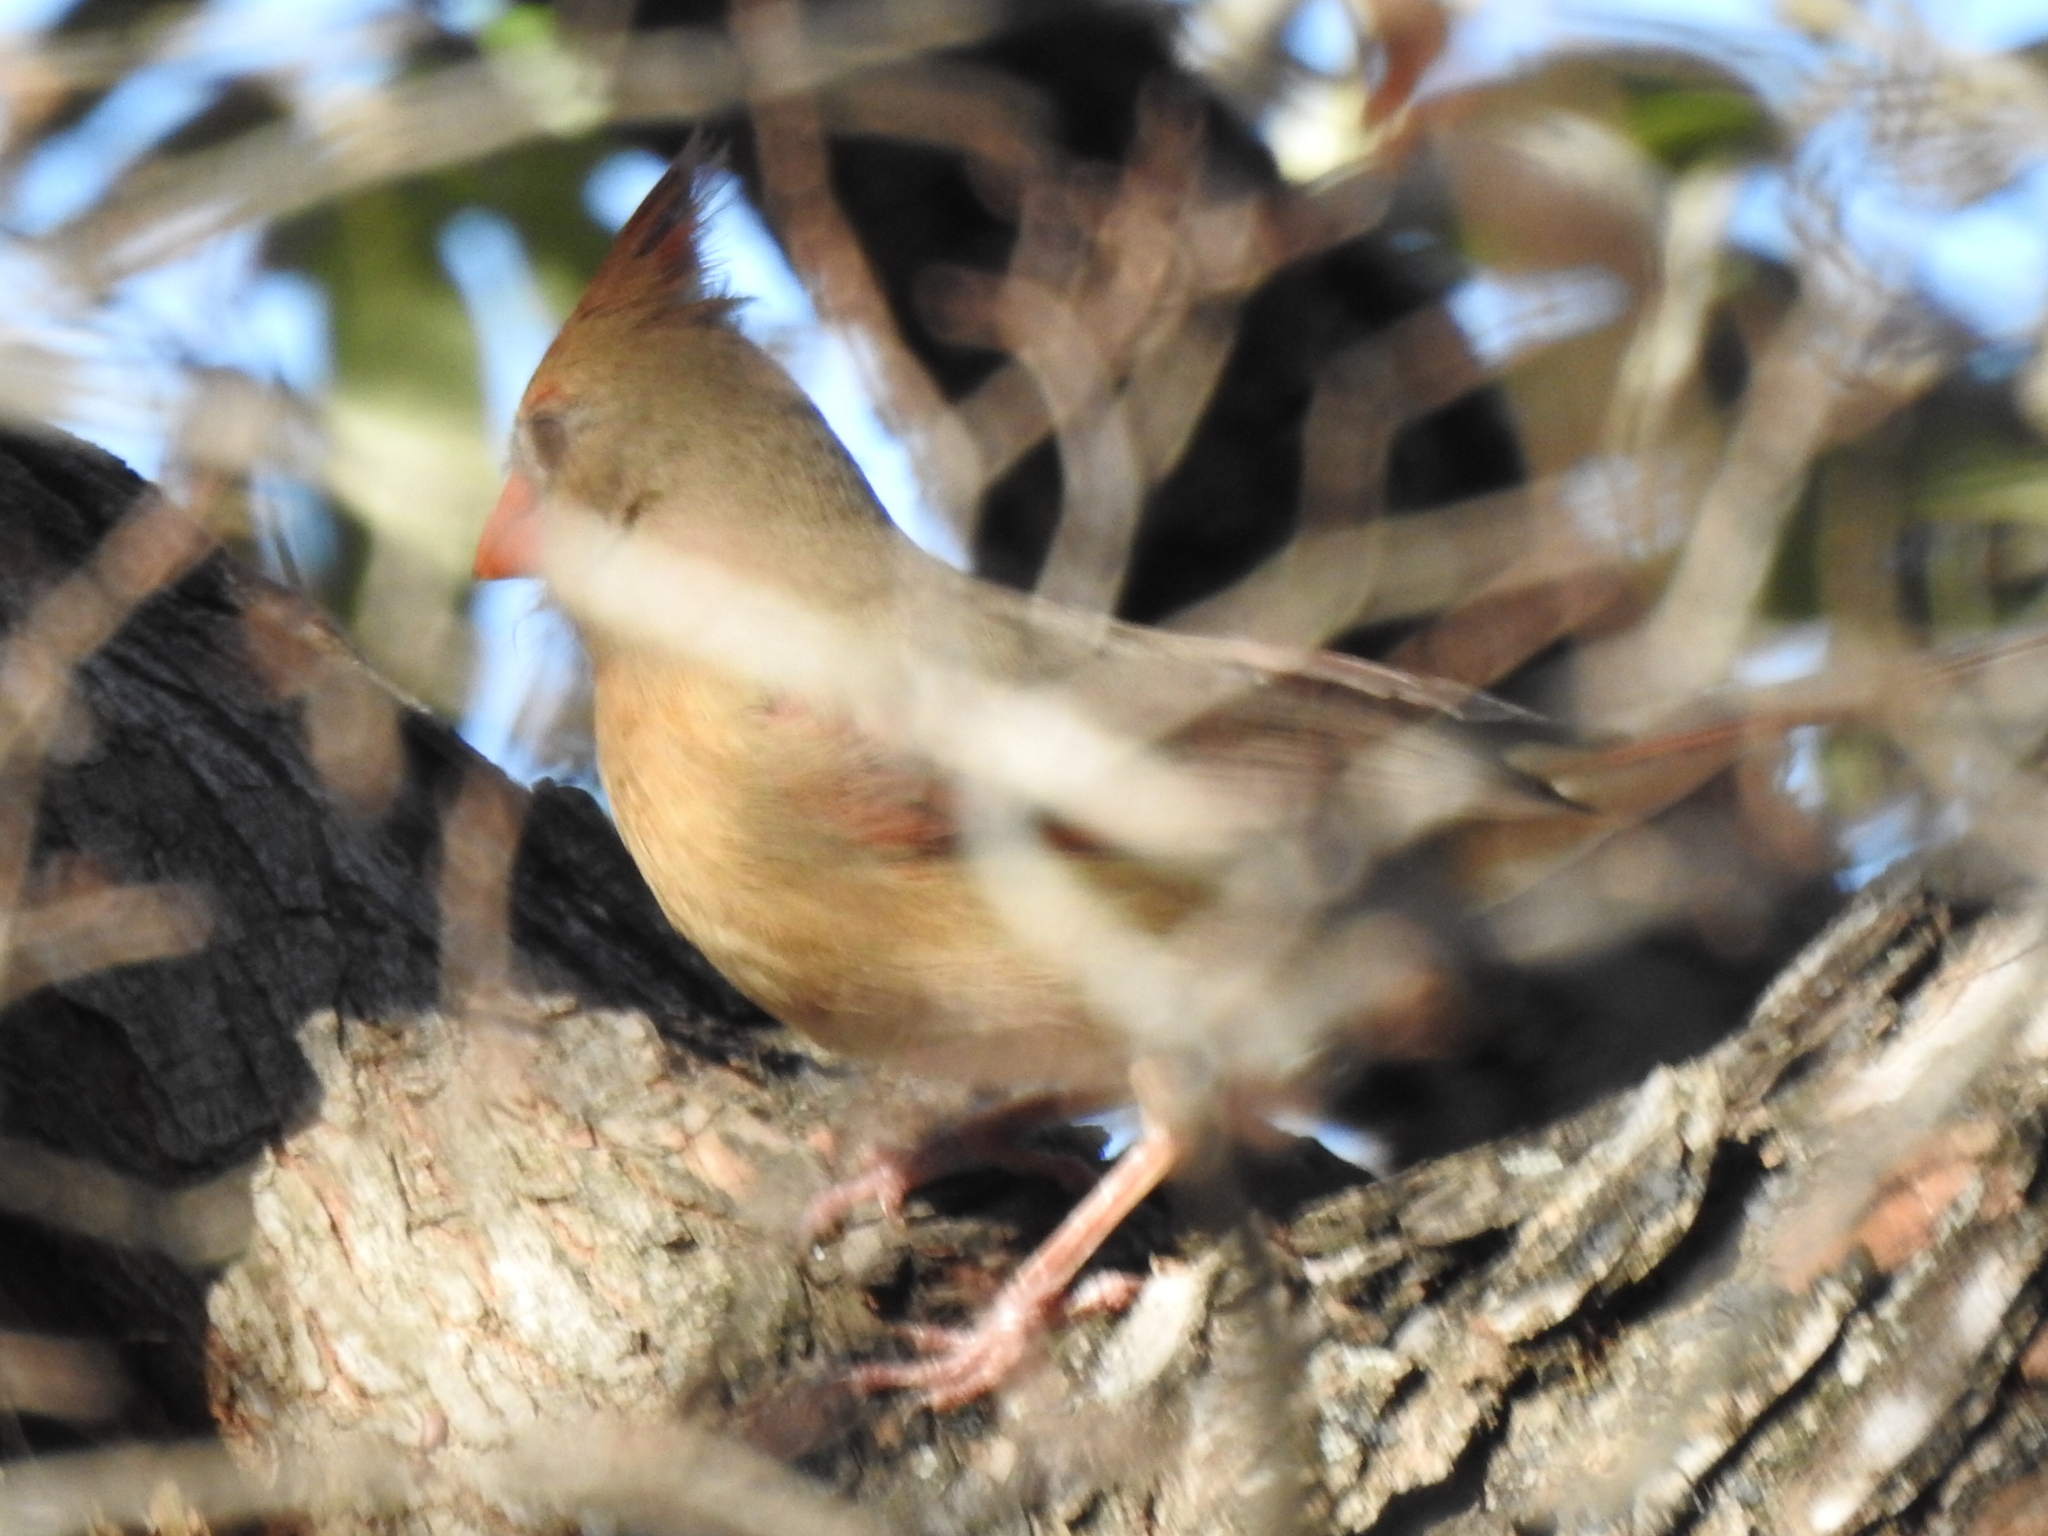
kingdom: Animalia
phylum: Chordata
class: Aves
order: Passeriformes
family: Cardinalidae
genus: Cardinalis
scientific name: Cardinalis cardinalis
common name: Northern cardinal
